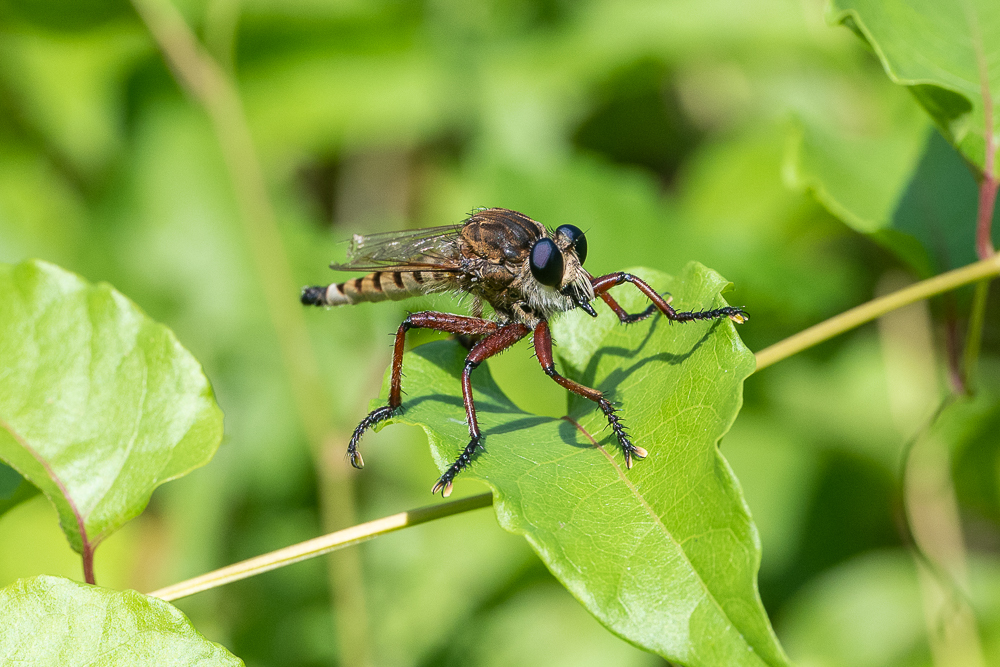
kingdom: Animalia
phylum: Arthropoda
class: Insecta
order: Diptera
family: Asilidae
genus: Promachus
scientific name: Promachus hinei
